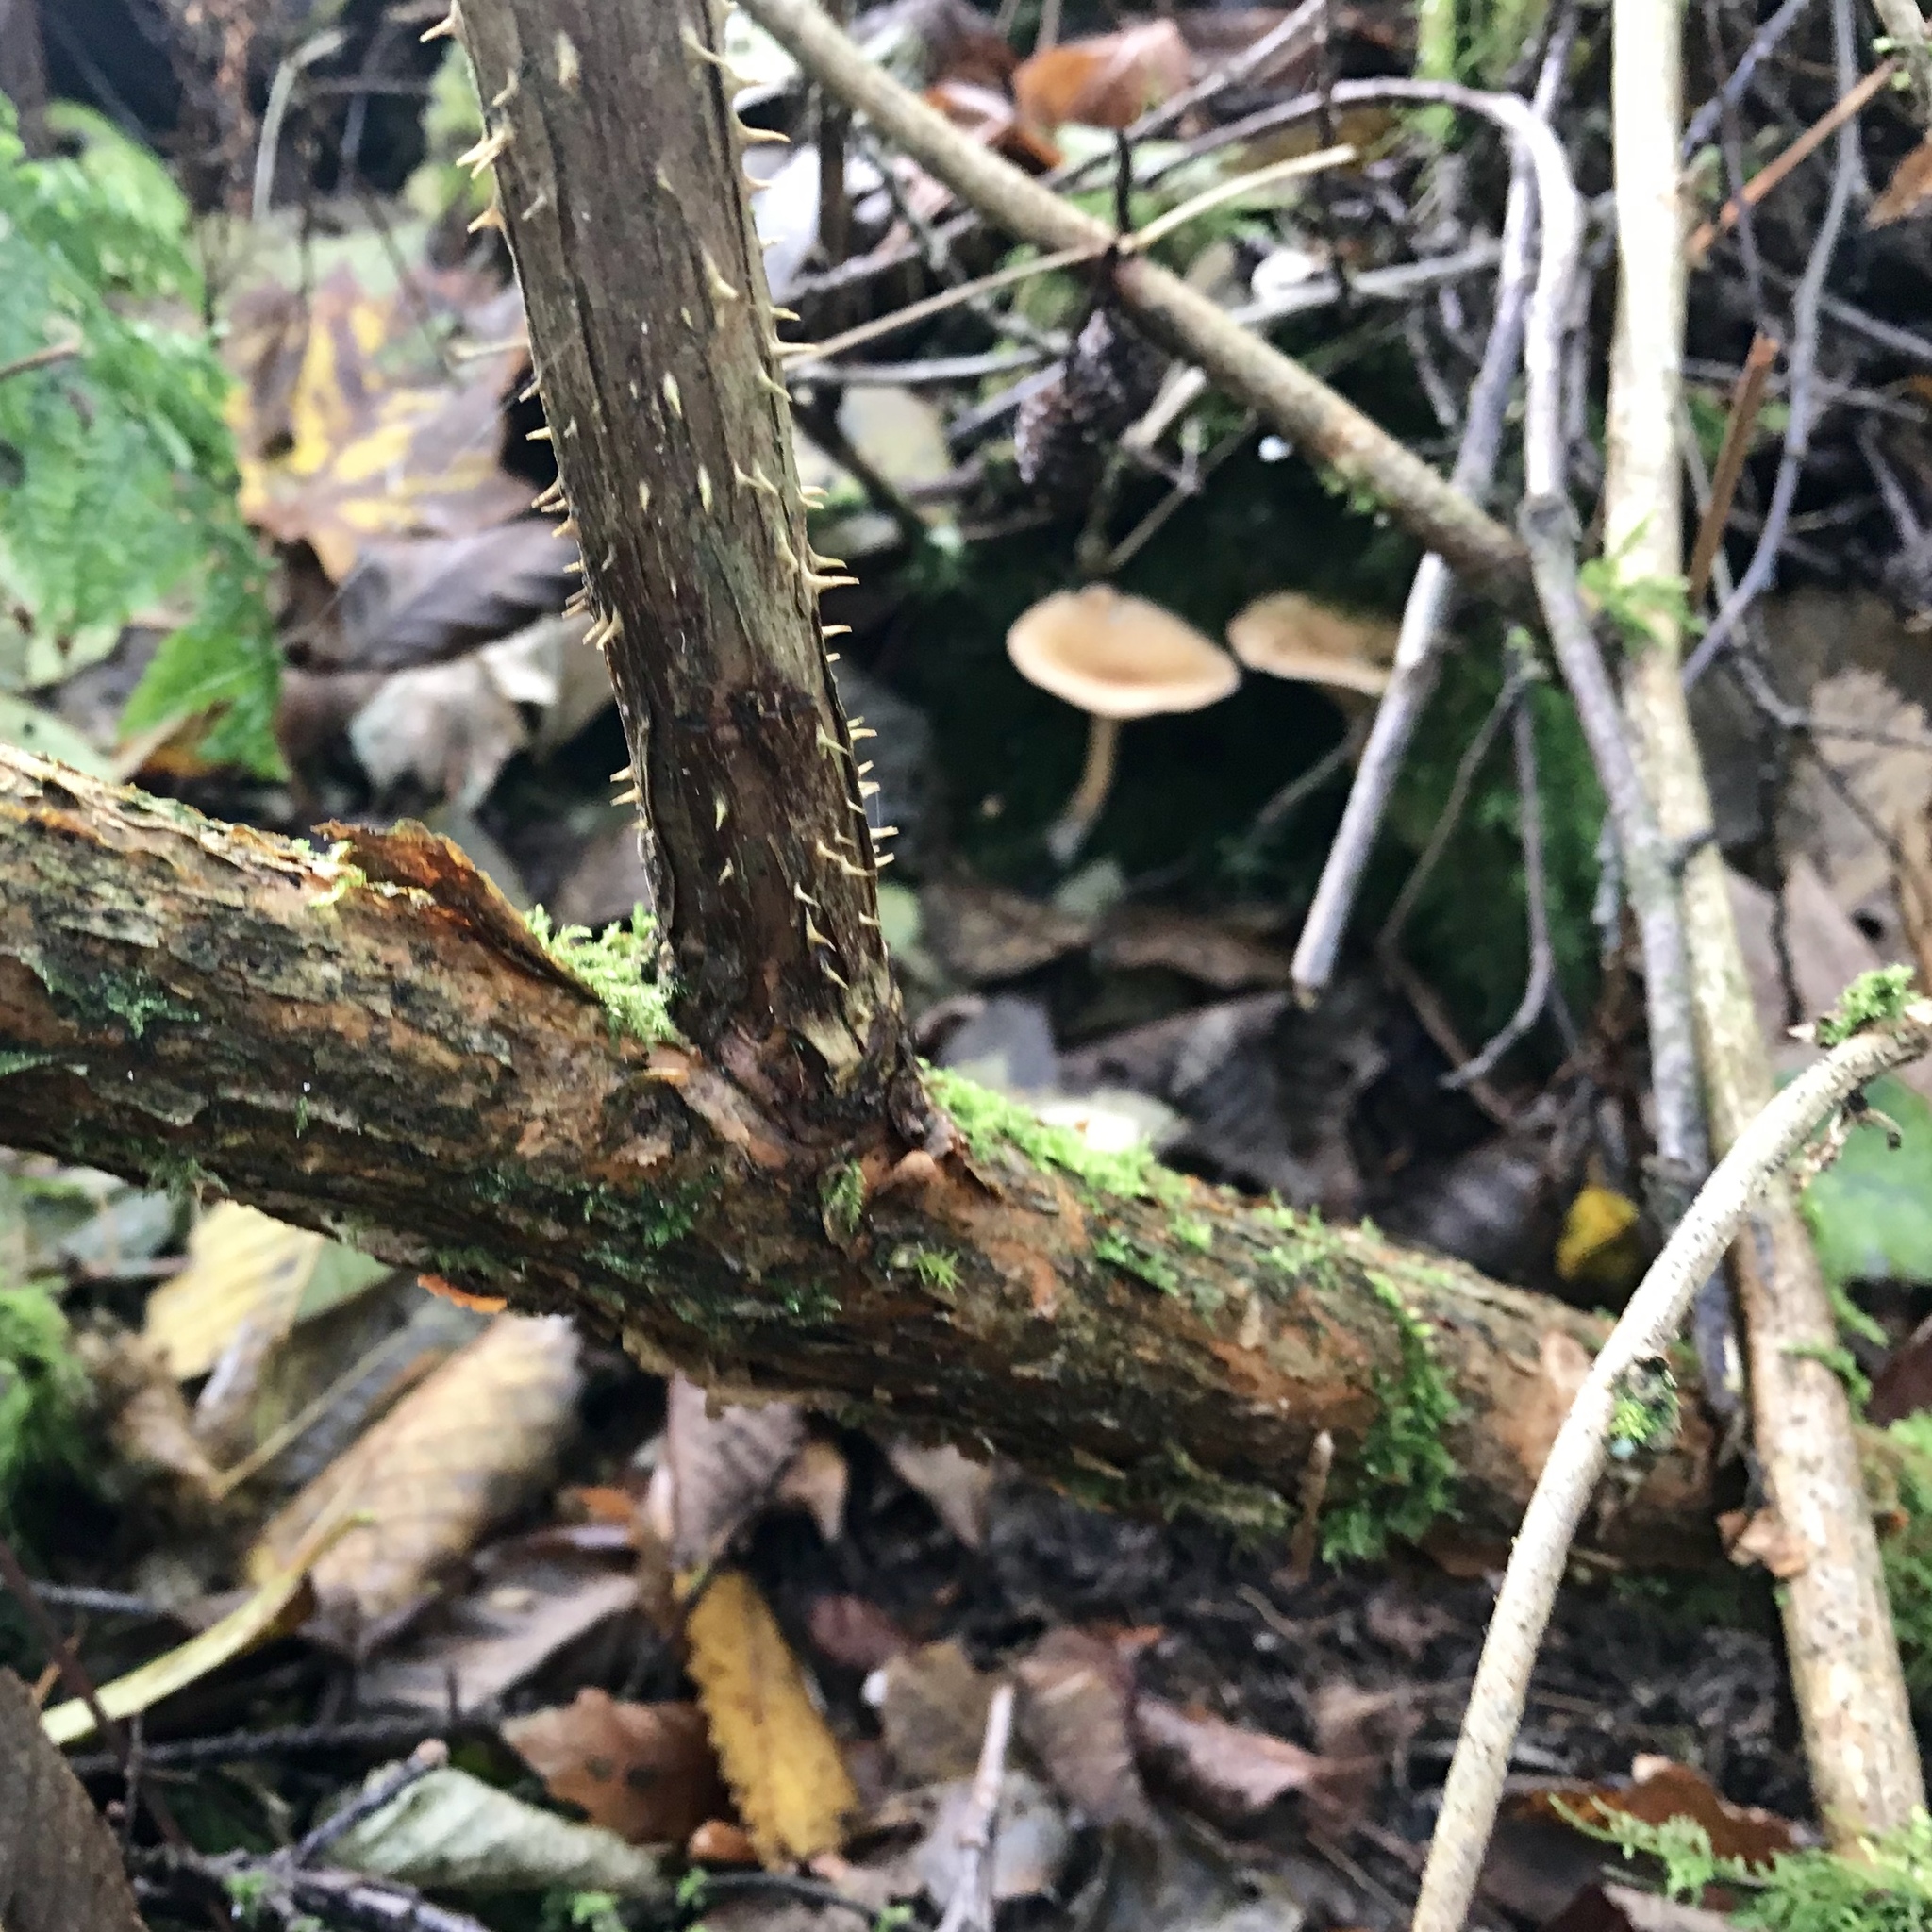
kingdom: Fungi
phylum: Basidiomycota
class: Agaricomycetes
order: Boletales
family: Hygrophoropsidaceae
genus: Hygrophoropsis
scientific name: Hygrophoropsis aurantiaca
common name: False chanterelle
